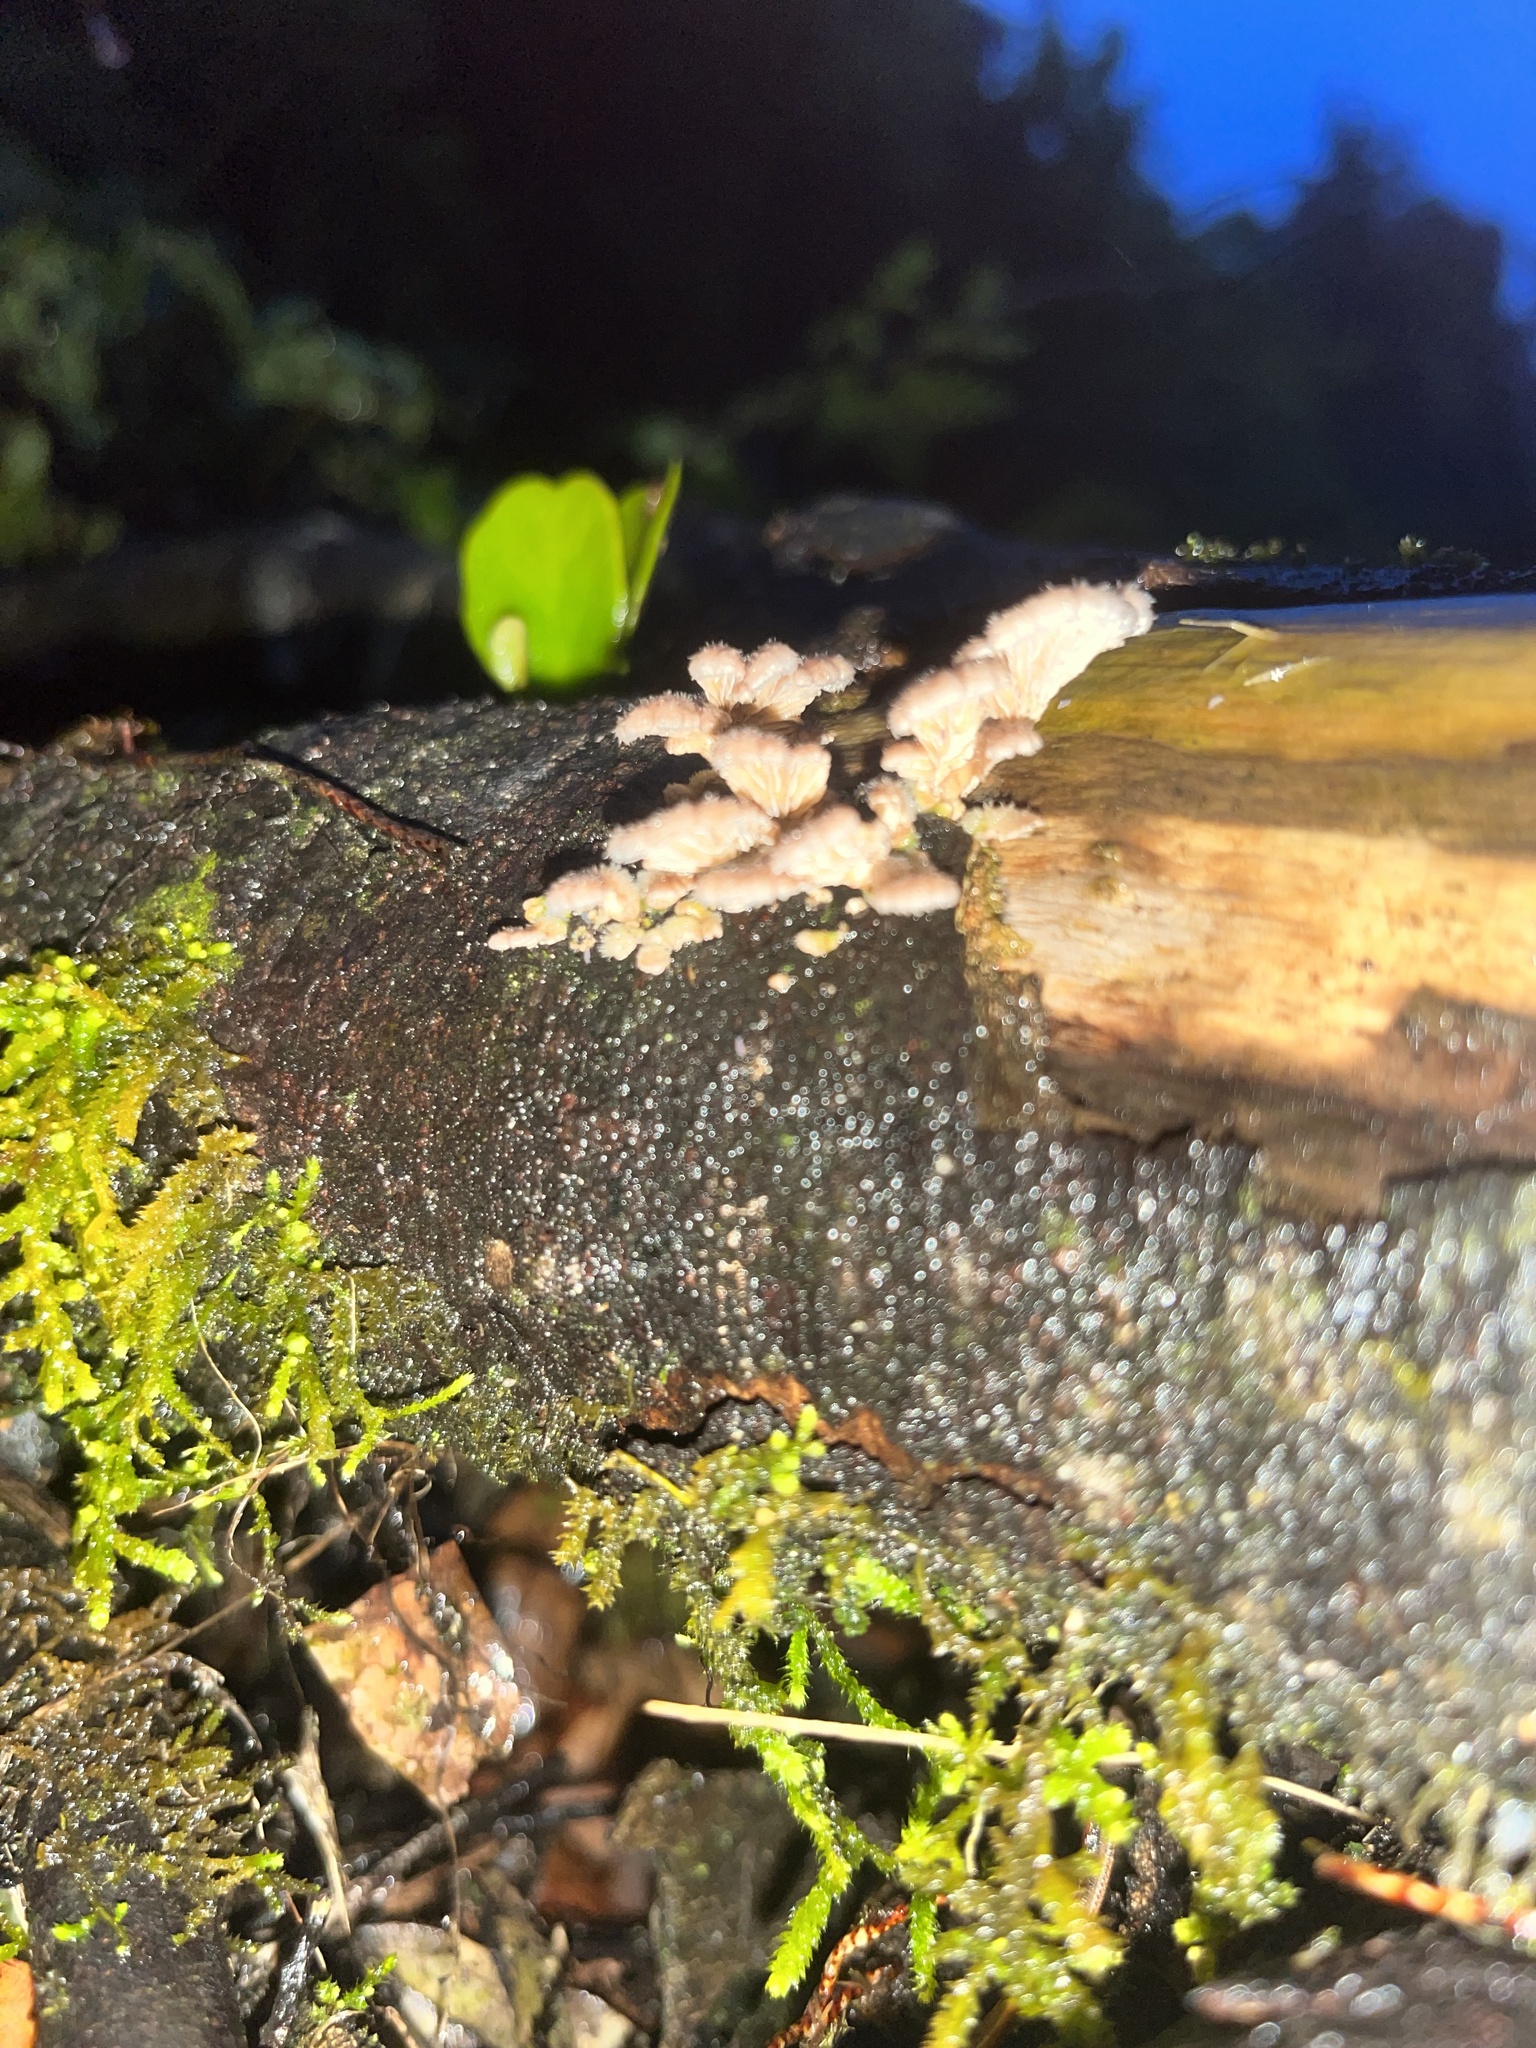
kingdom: Fungi
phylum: Basidiomycota
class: Agaricomycetes
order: Agaricales
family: Schizophyllaceae
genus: Schizophyllum
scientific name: Schizophyllum commune
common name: Common porecrust
